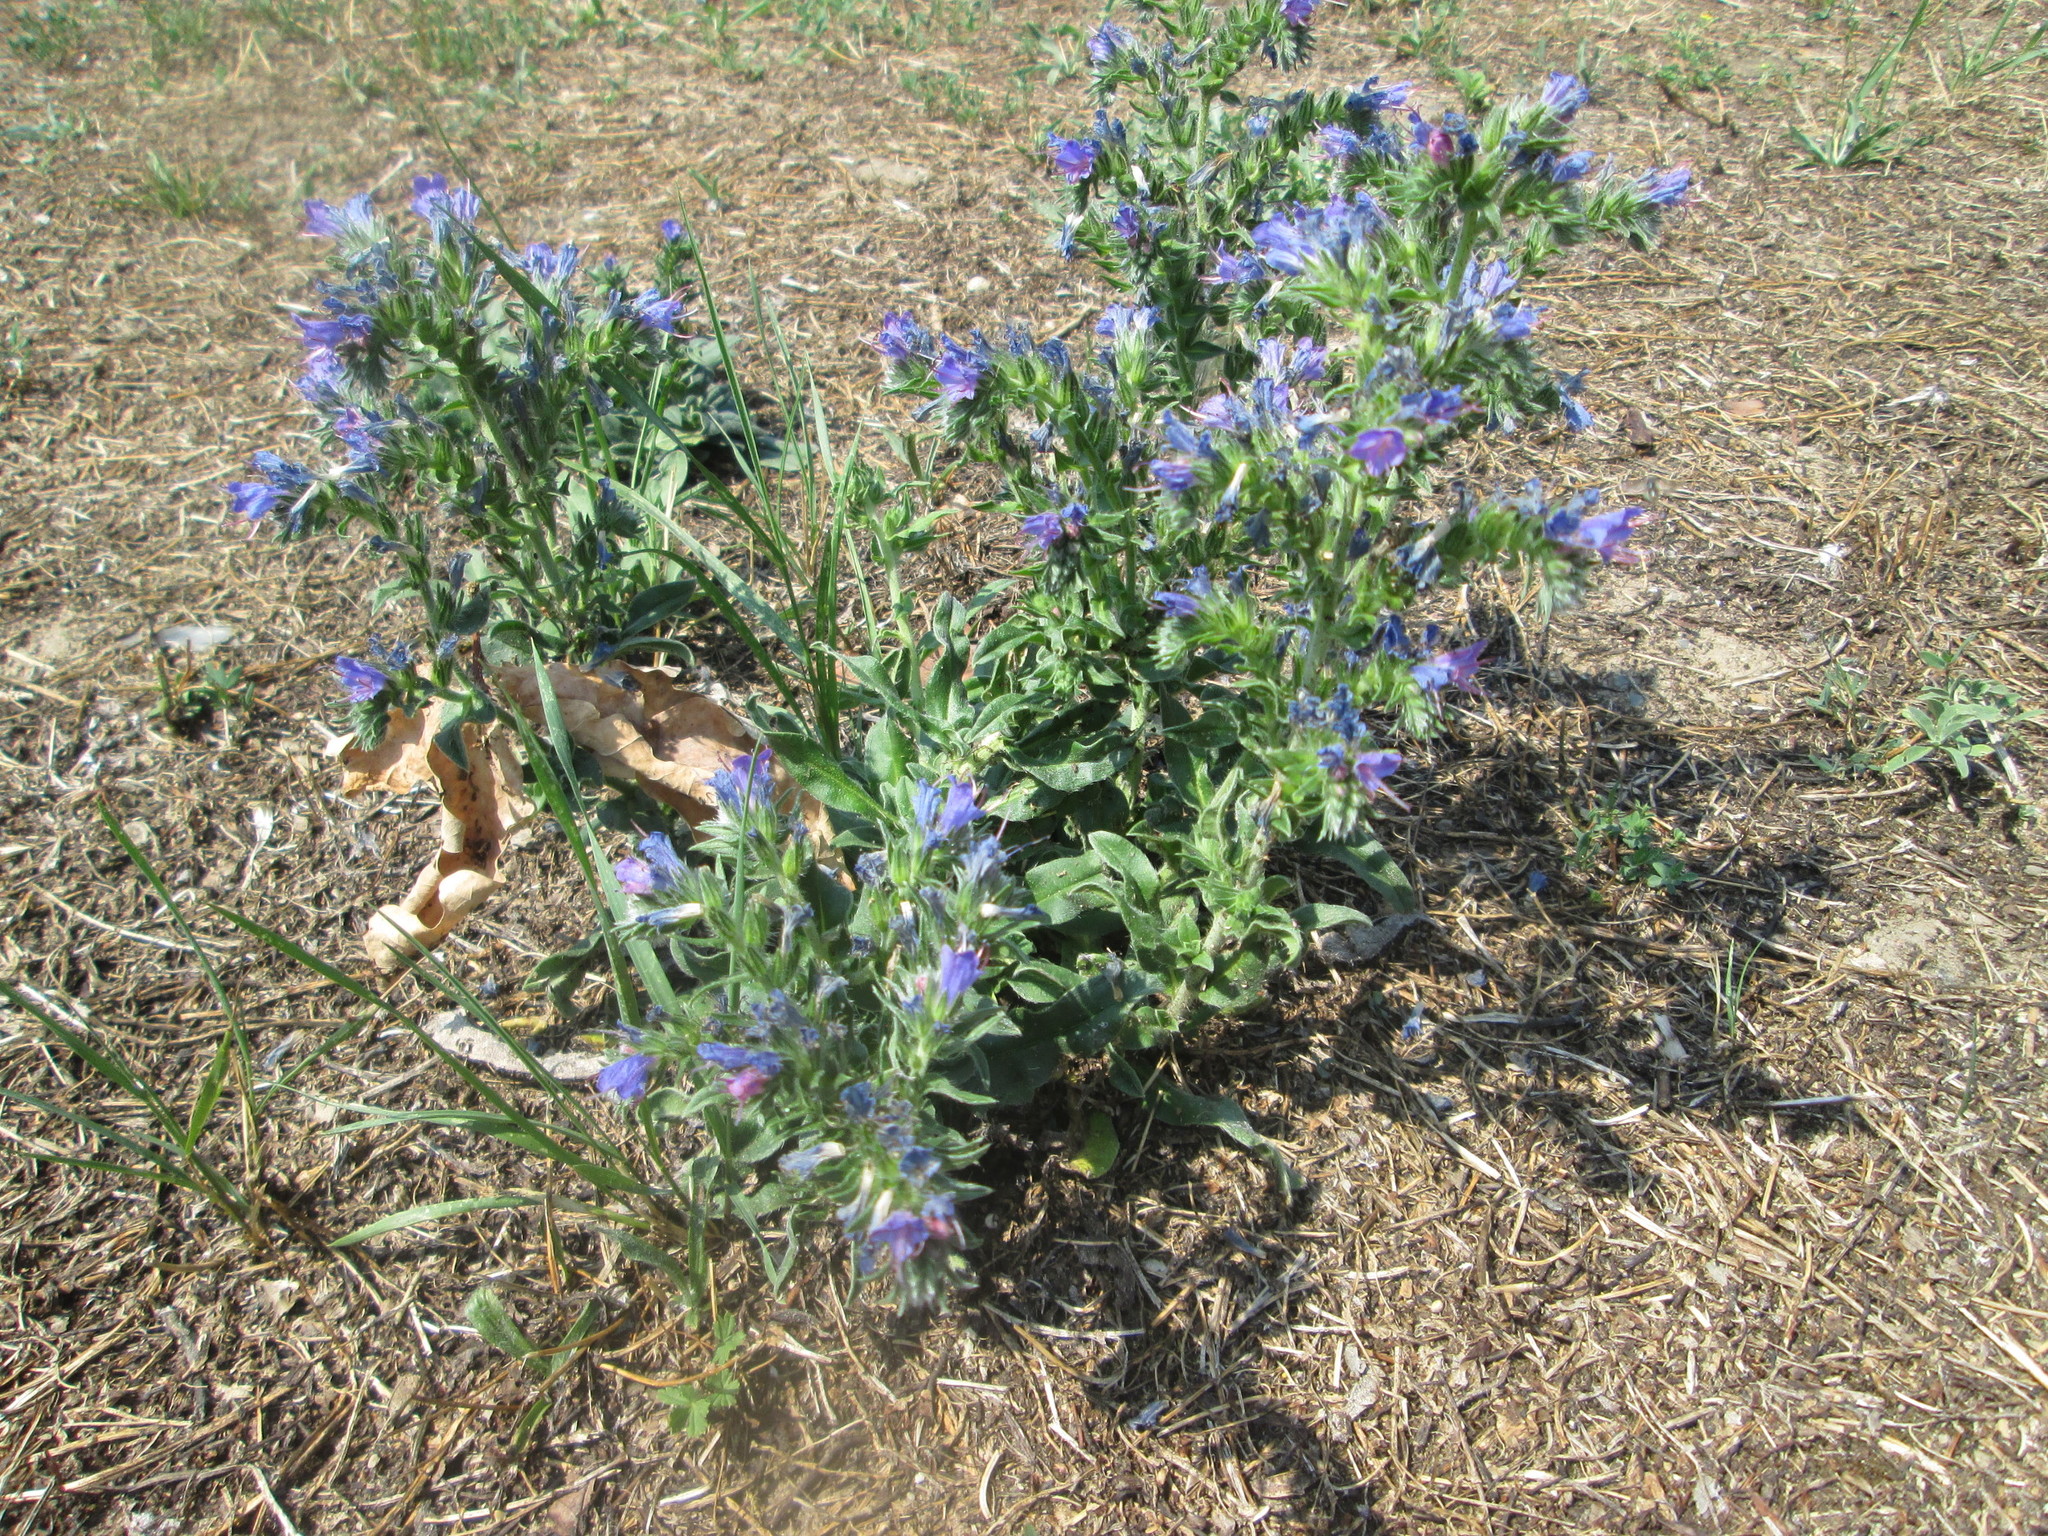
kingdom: Plantae
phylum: Tracheophyta
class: Magnoliopsida
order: Boraginales
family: Boraginaceae
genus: Echium
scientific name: Echium vulgare
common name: Common viper's bugloss
